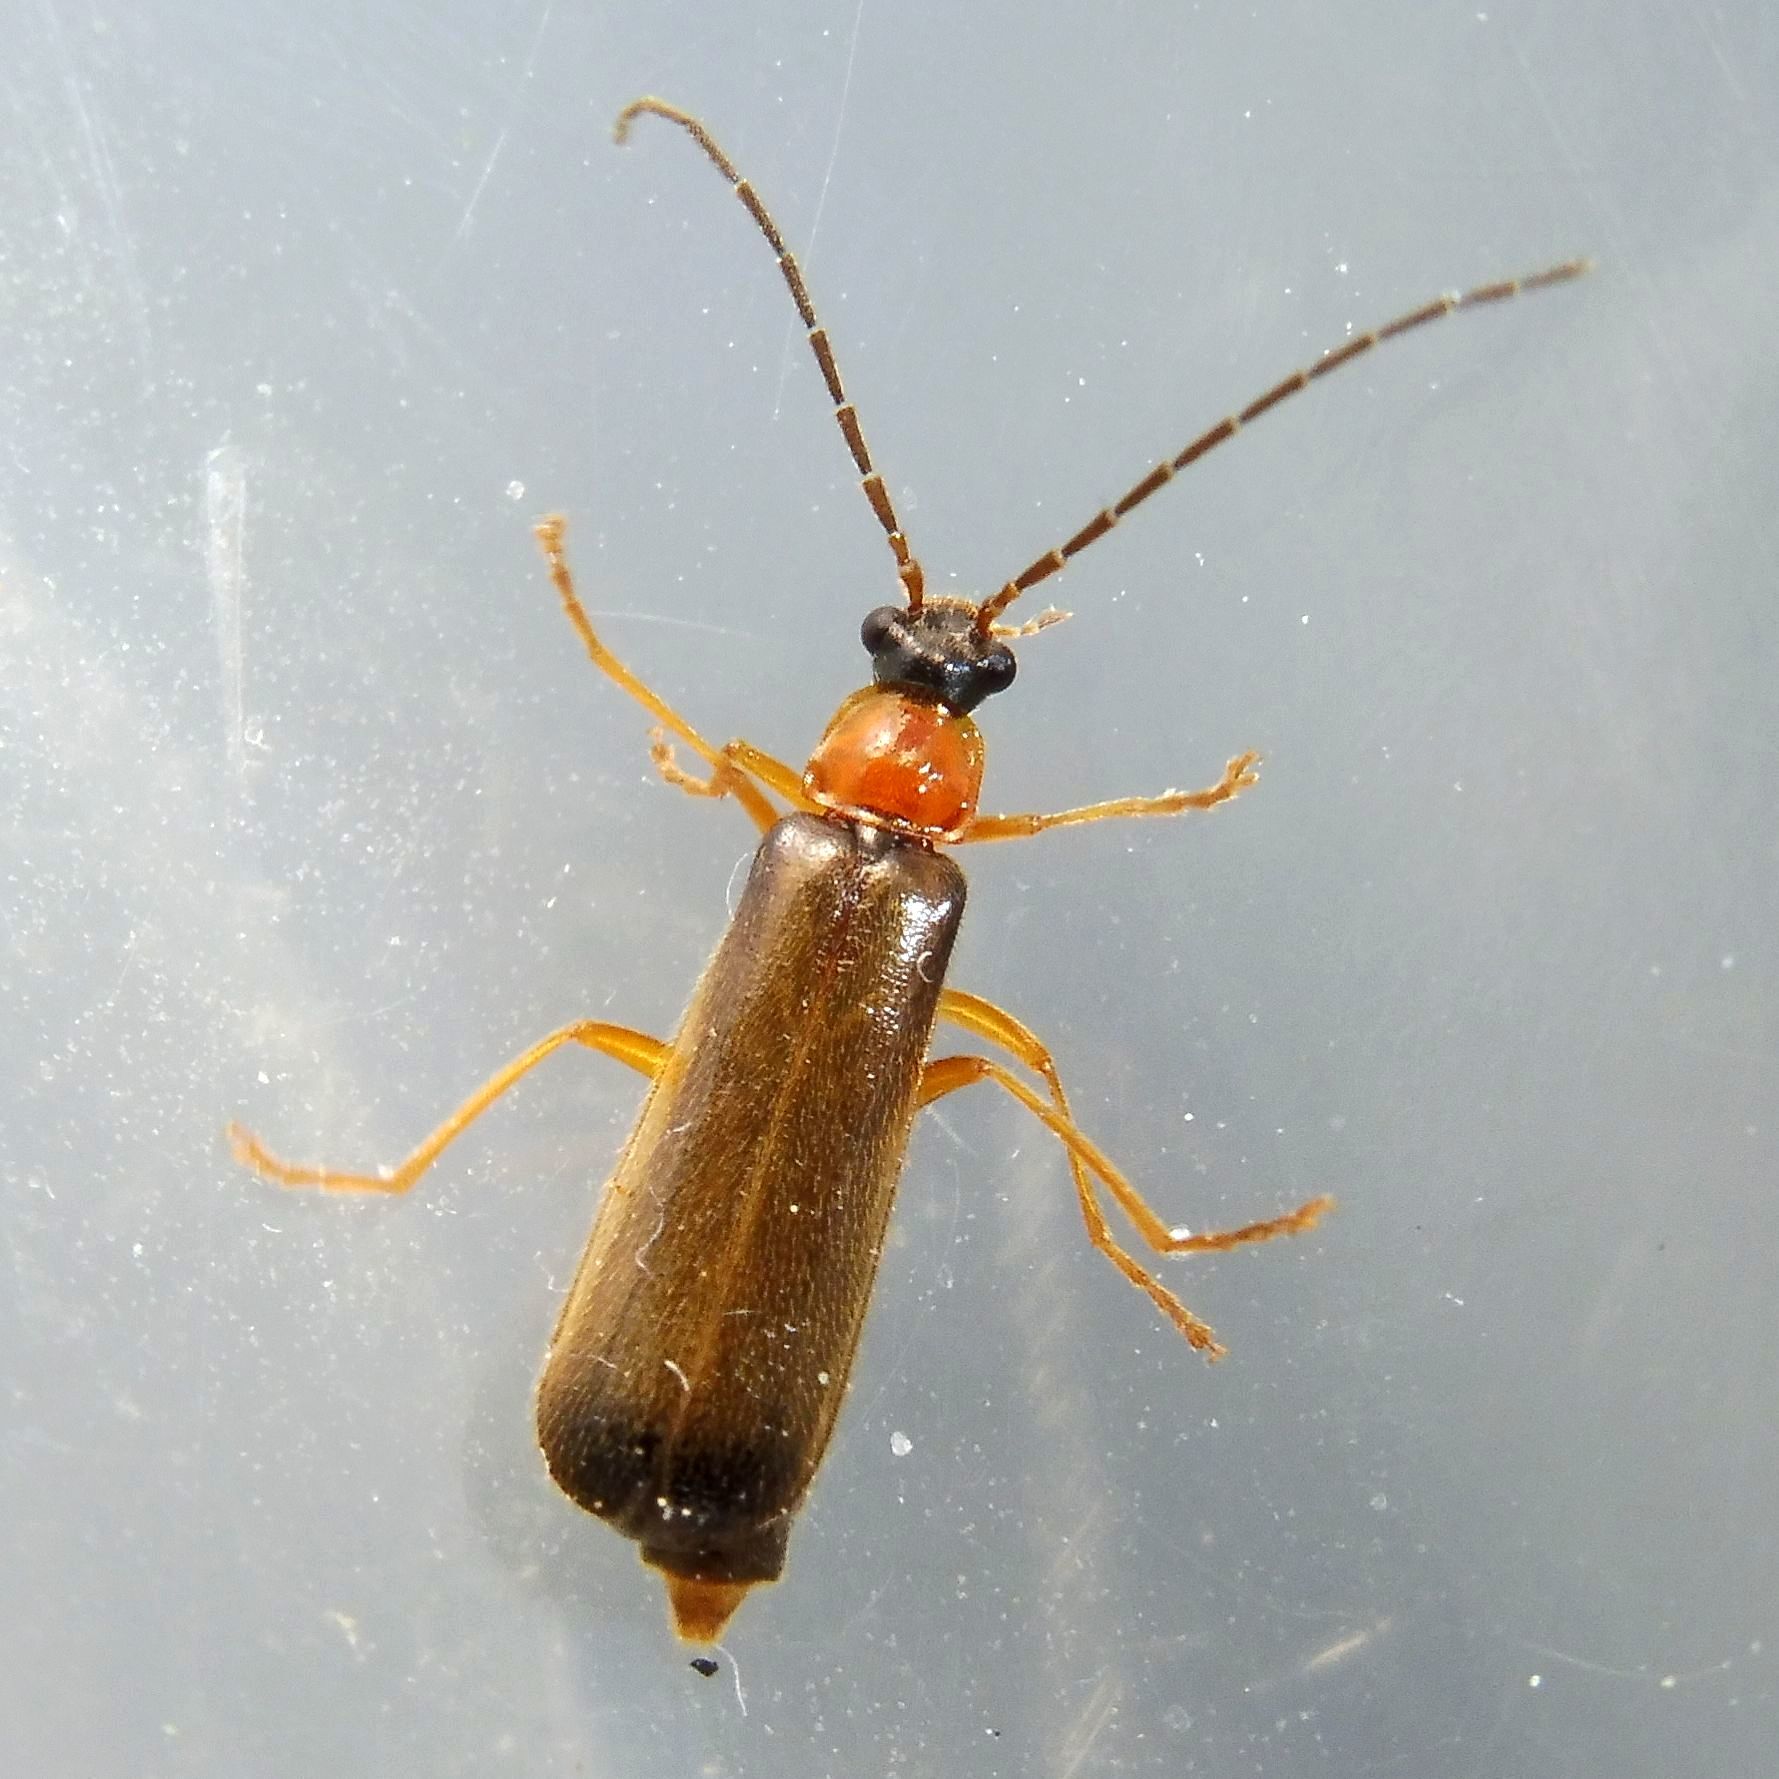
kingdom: Animalia
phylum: Arthropoda
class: Insecta
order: Coleoptera
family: Cantharidae
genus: Rhagonycha
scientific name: Rhagonycha lutea
